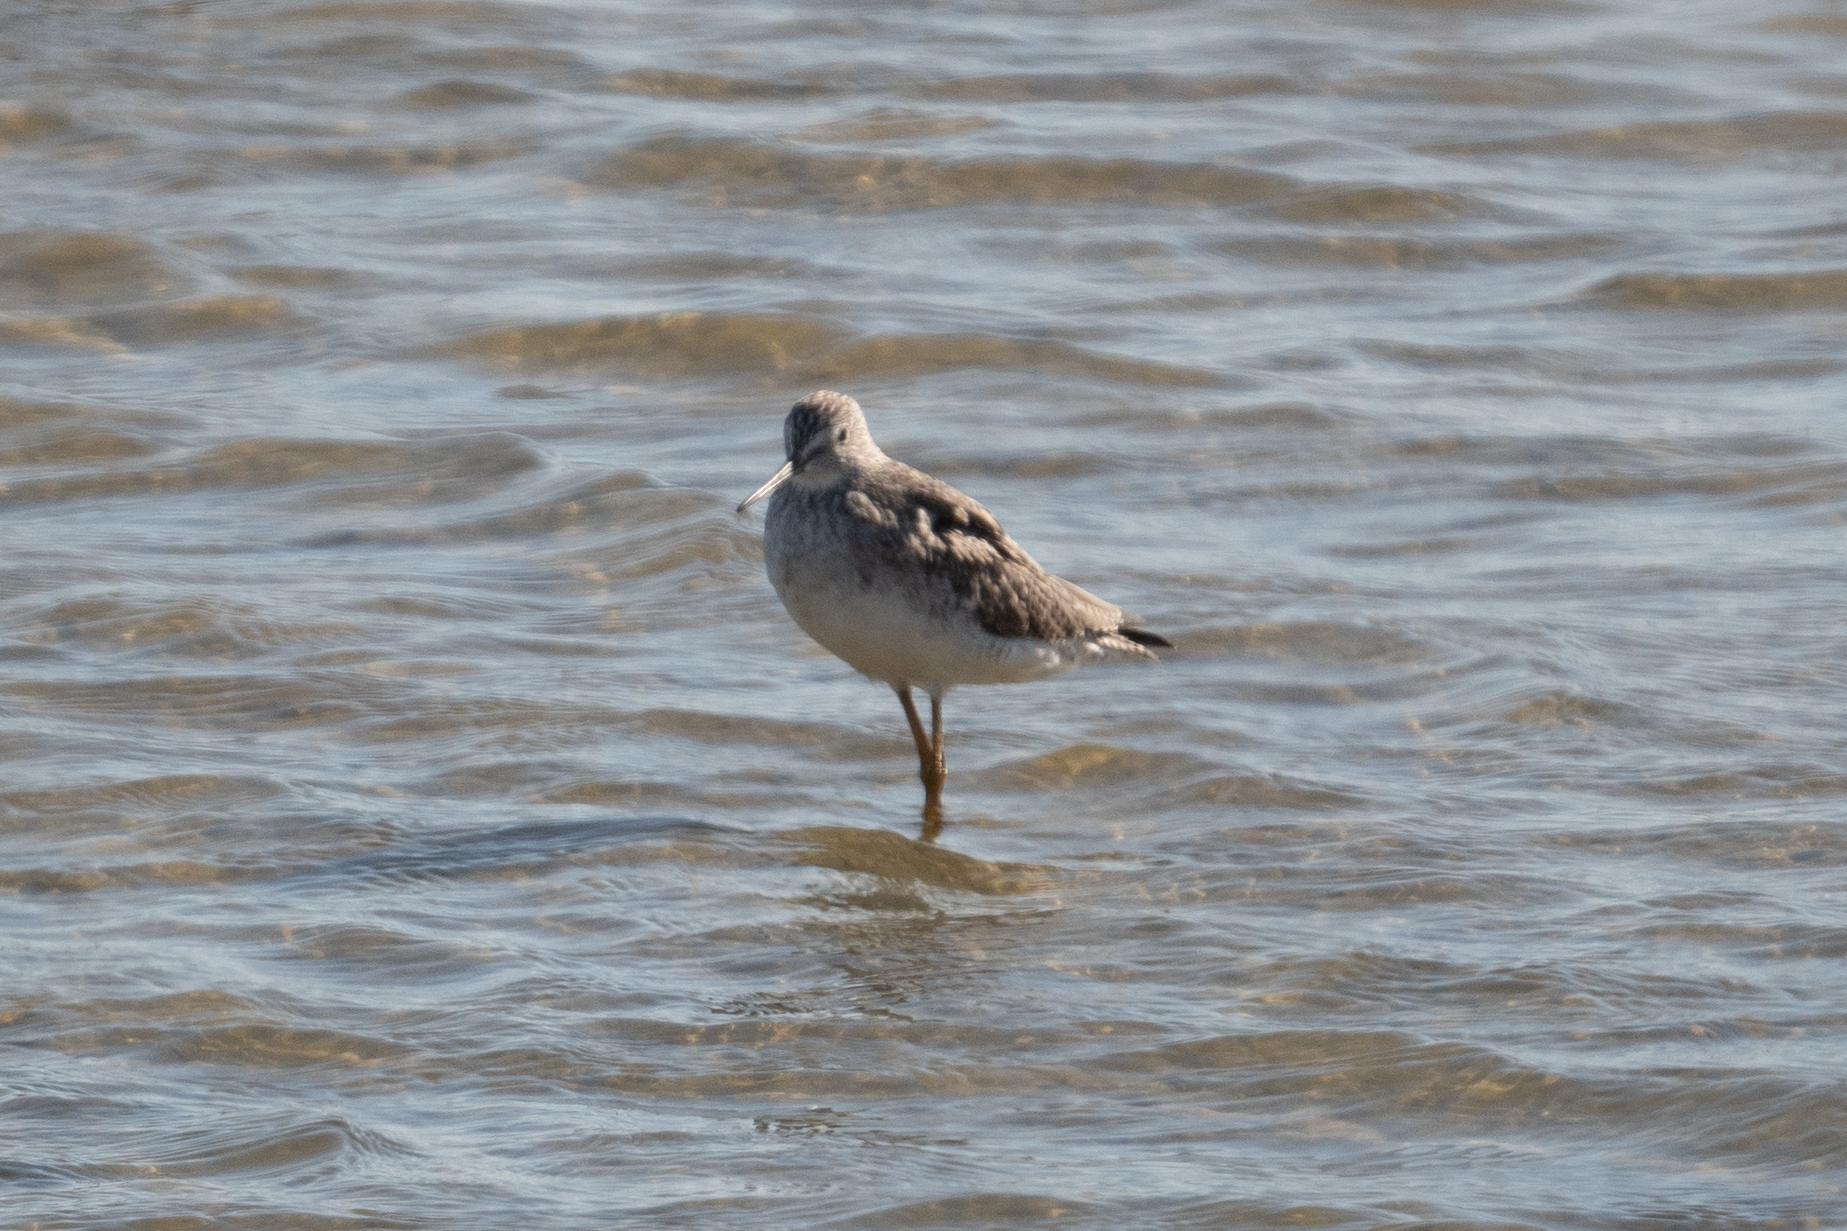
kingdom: Animalia
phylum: Chordata
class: Aves
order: Charadriiformes
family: Scolopacidae
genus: Tringa
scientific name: Tringa melanoleuca
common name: Greater yellowlegs
